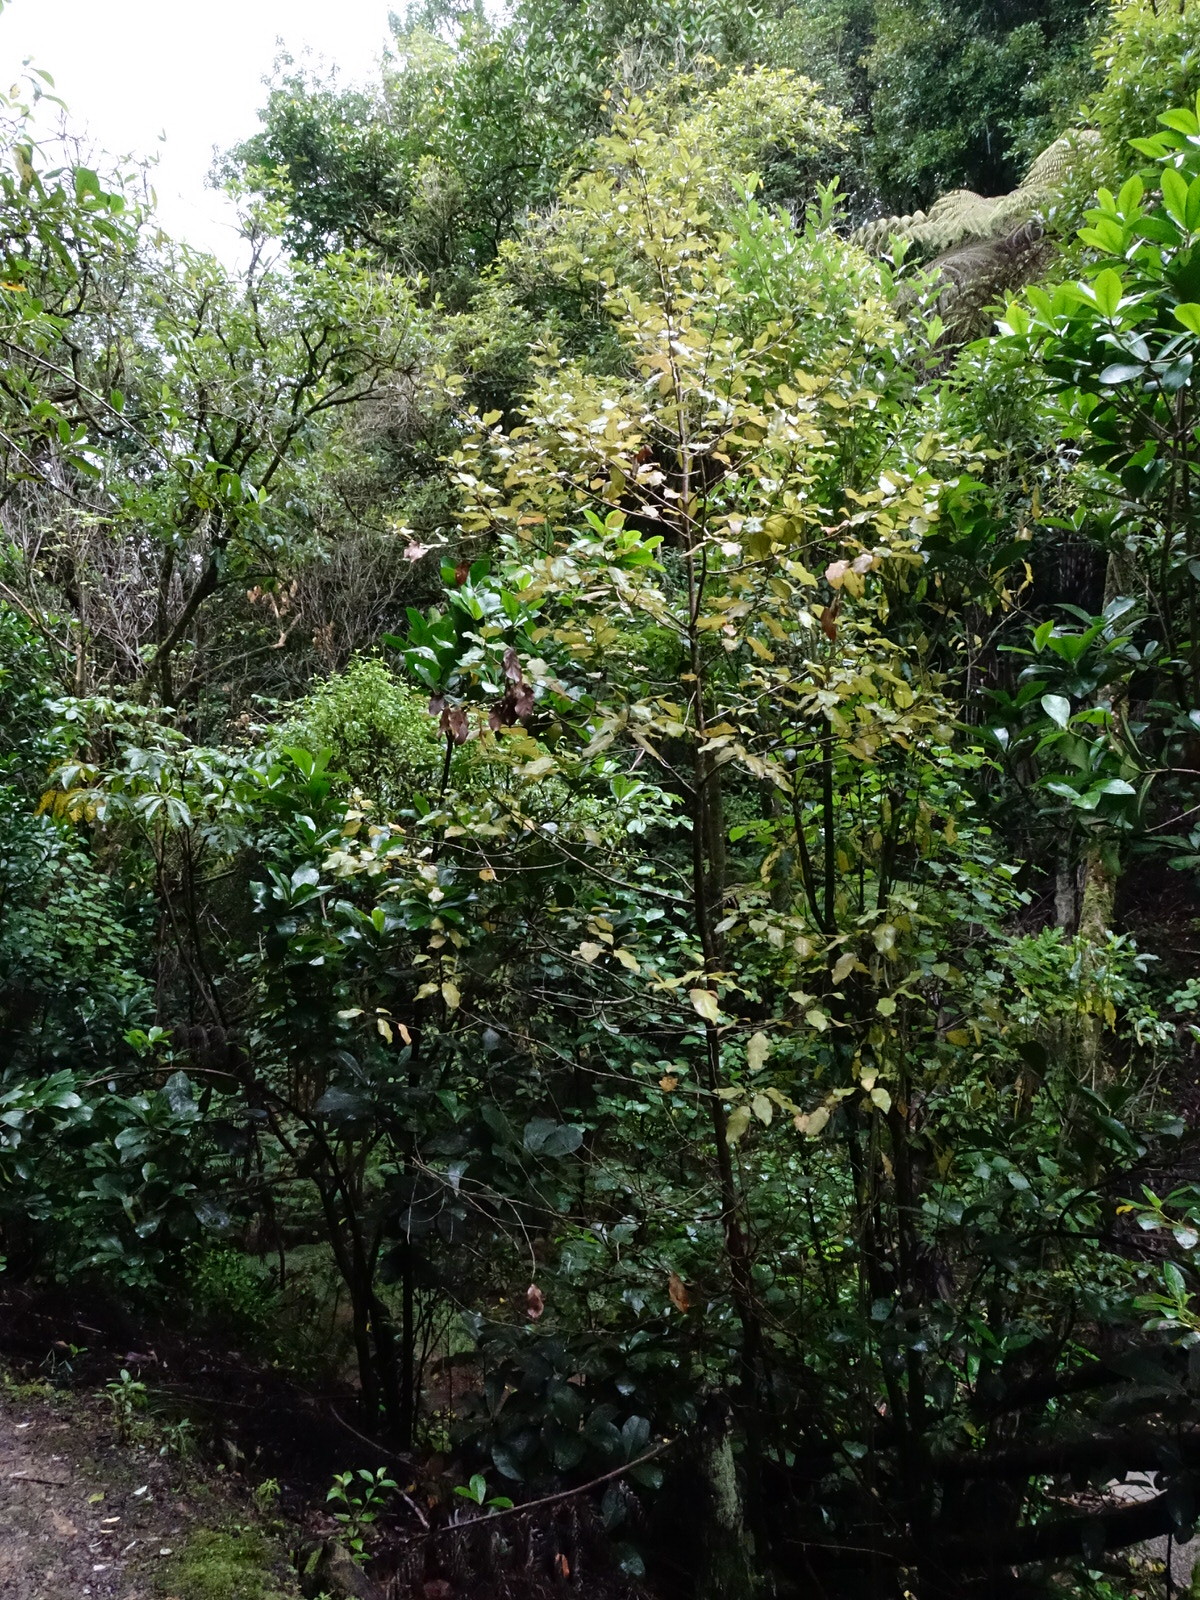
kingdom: Plantae
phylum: Tracheophyta
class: Magnoliopsida
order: Laurales
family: Lauraceae
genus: Litsea
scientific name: Litsea calicaris
